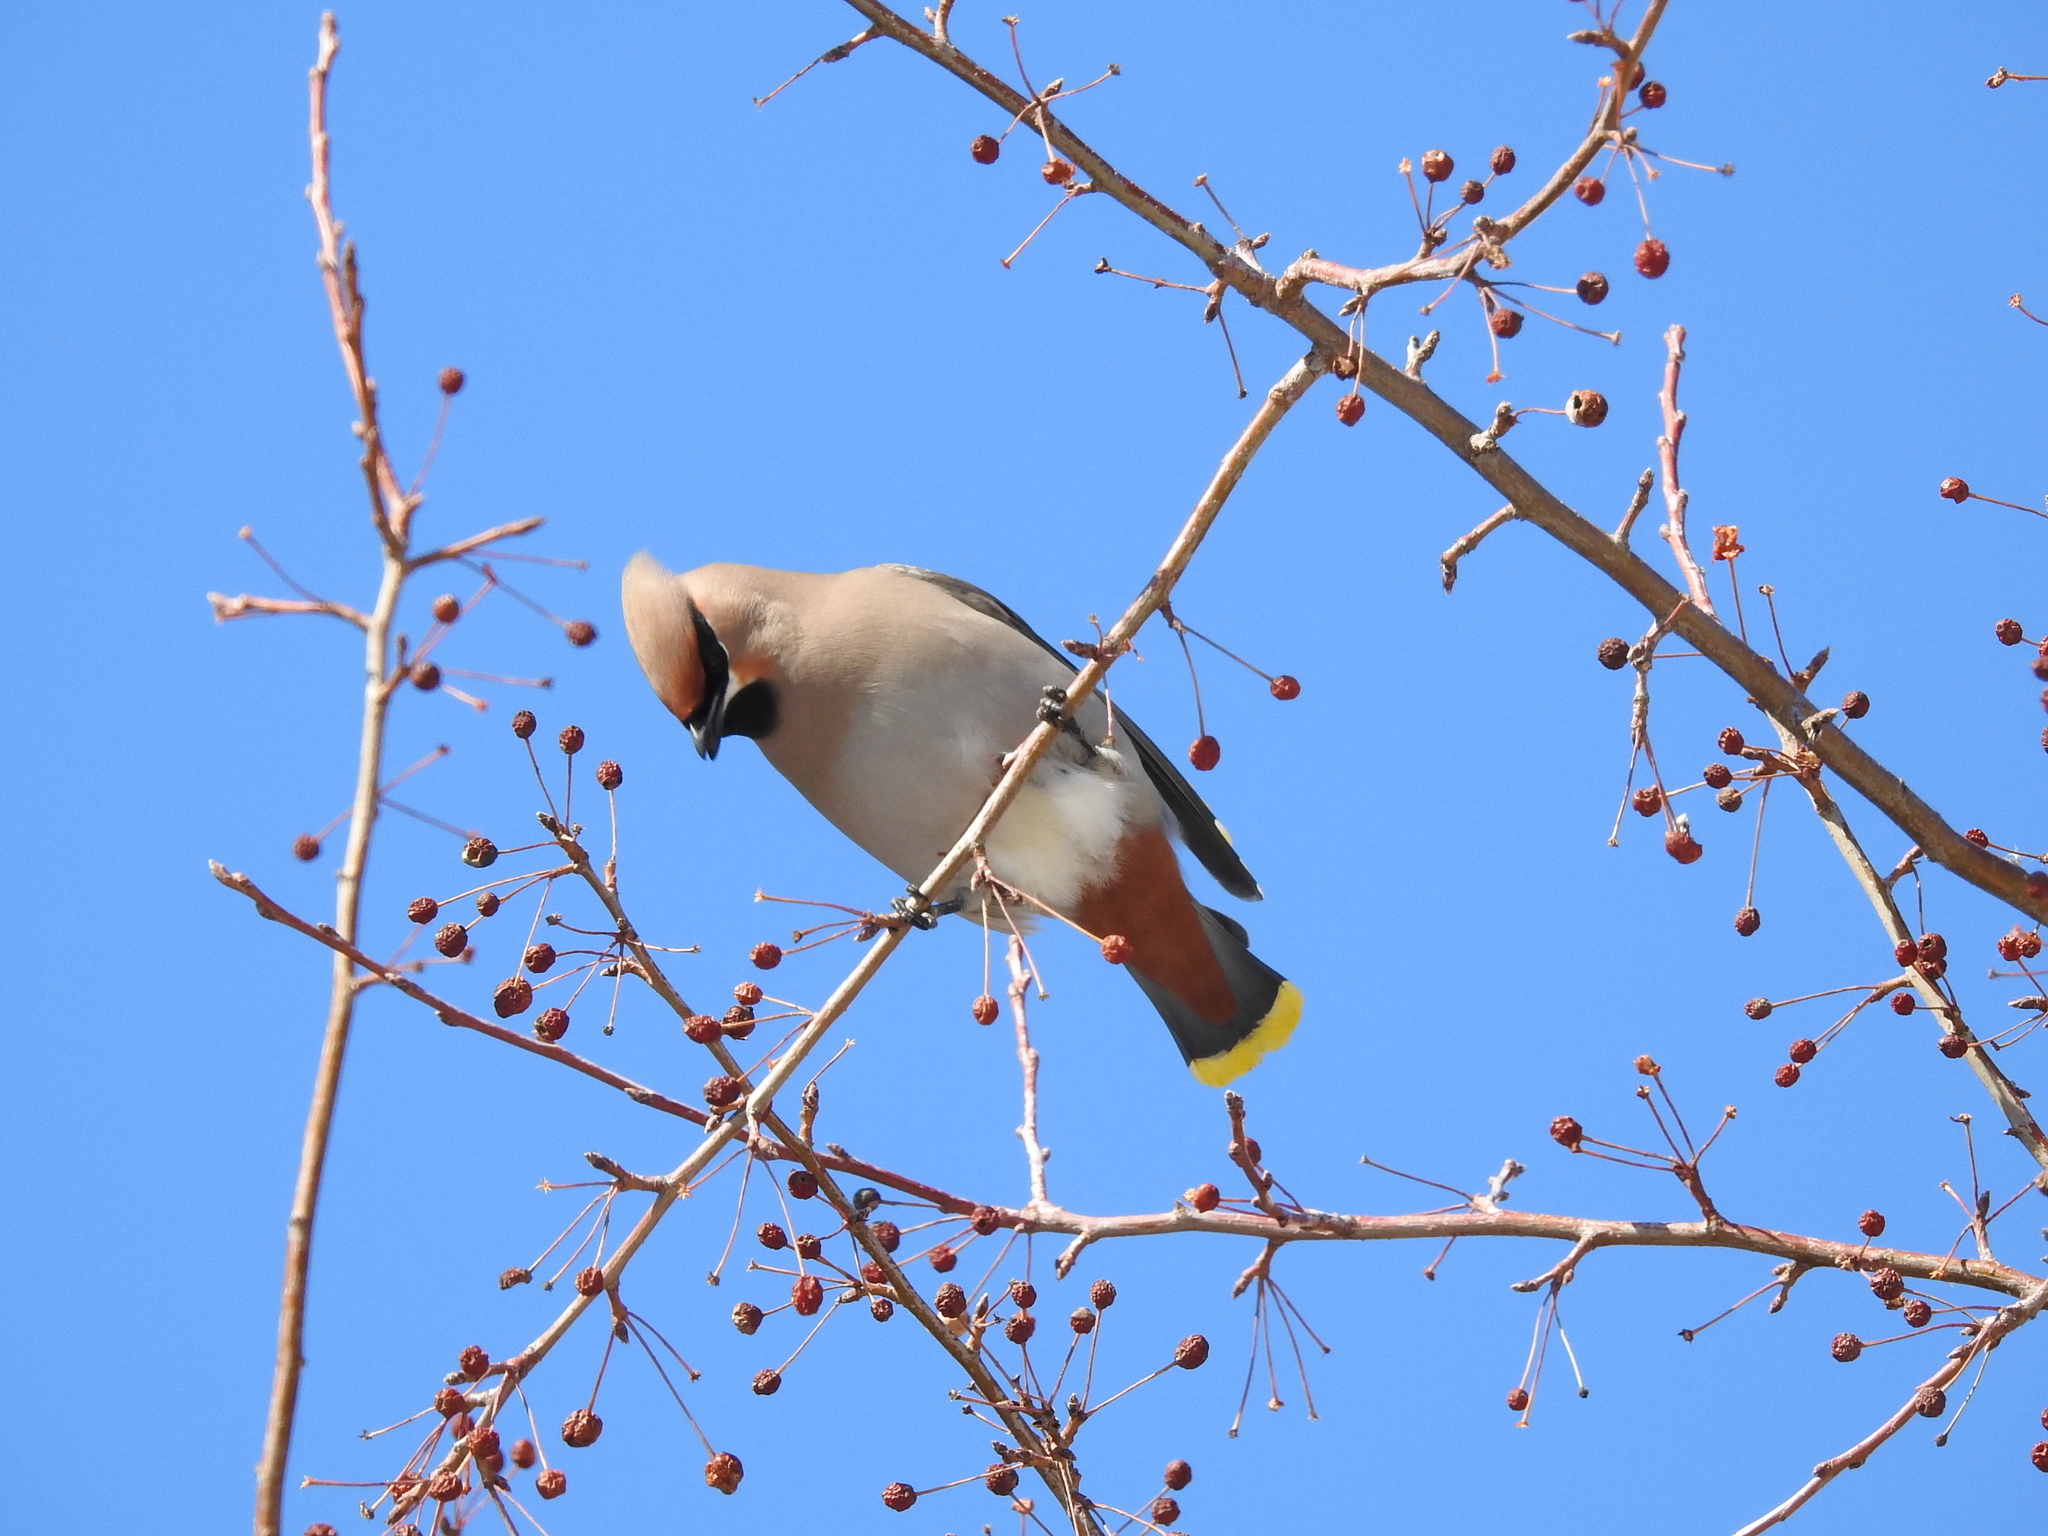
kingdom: Animalia
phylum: Chordata
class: Aves
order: Passeriformes
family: Bombycillidae
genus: Bombycilla
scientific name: Bombycilla garrulus
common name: Bohemian waxwing
